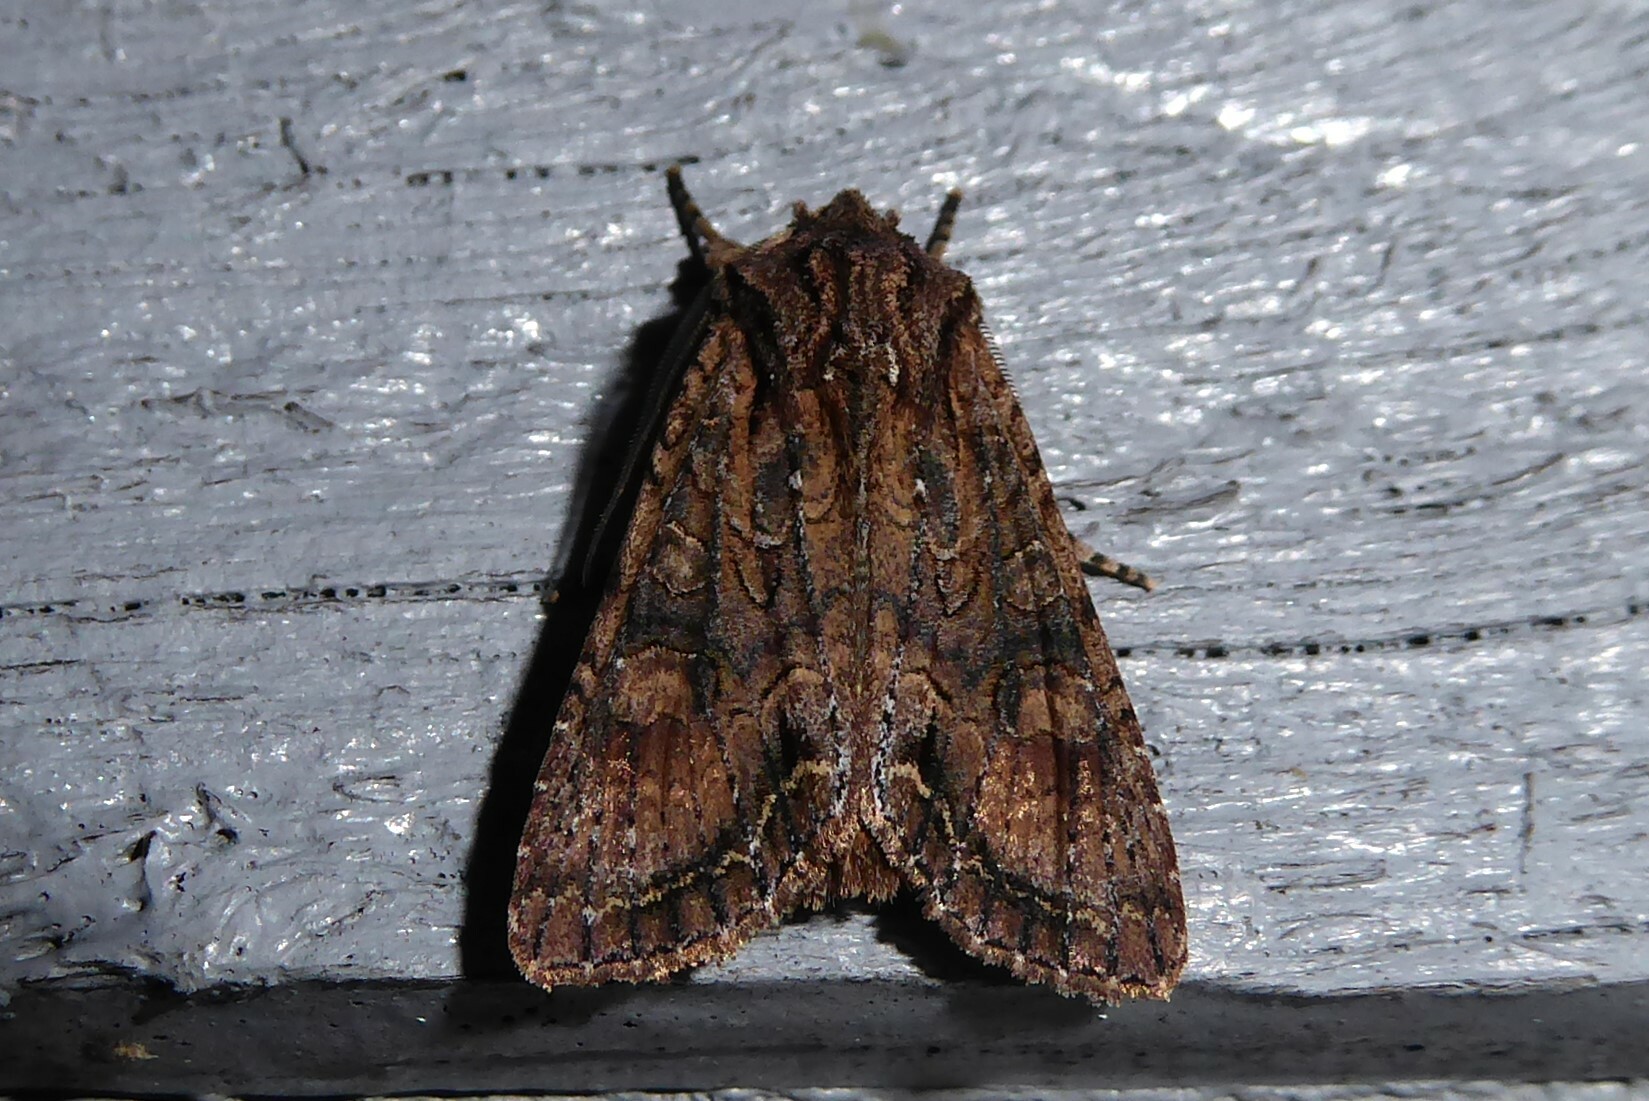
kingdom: Animalia
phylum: Arthropoda
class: Insecta
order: Lepidoptera
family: Noctuidae
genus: Ichneutica
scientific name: Ichneutica mutans
